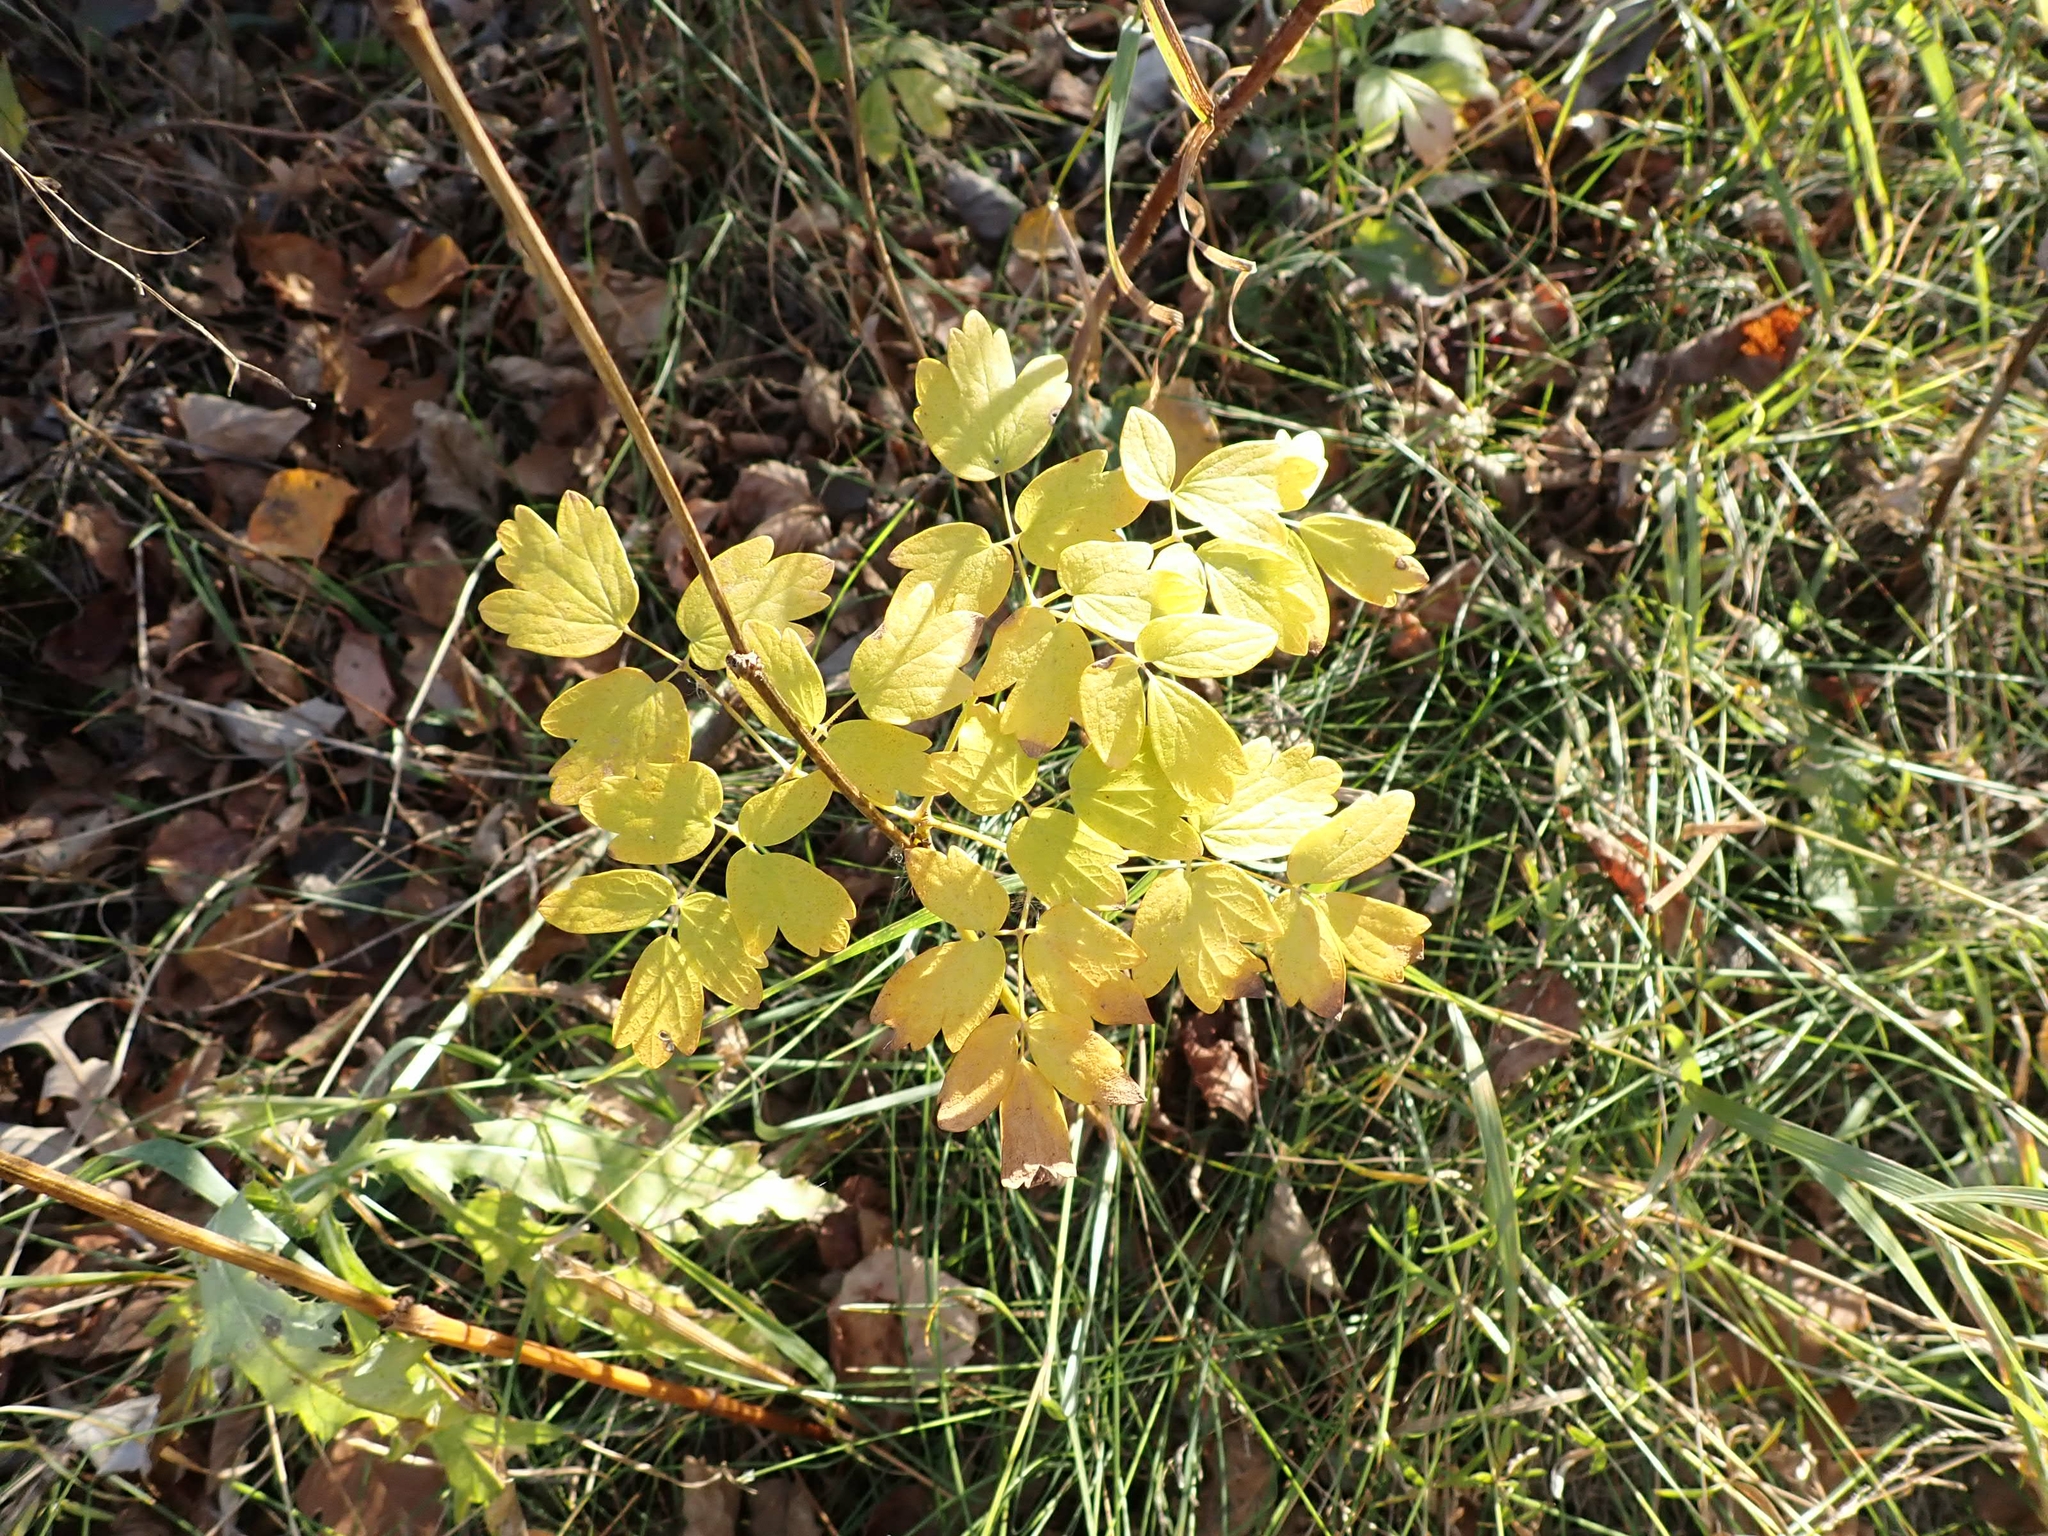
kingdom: Plantae
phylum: Tracheophyta
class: Magnoliopsida
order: Ranunculales
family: Ranunculaceae
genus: Thalictrum
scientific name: Thalictrum dasycarpum
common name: Purple meadow-rue
